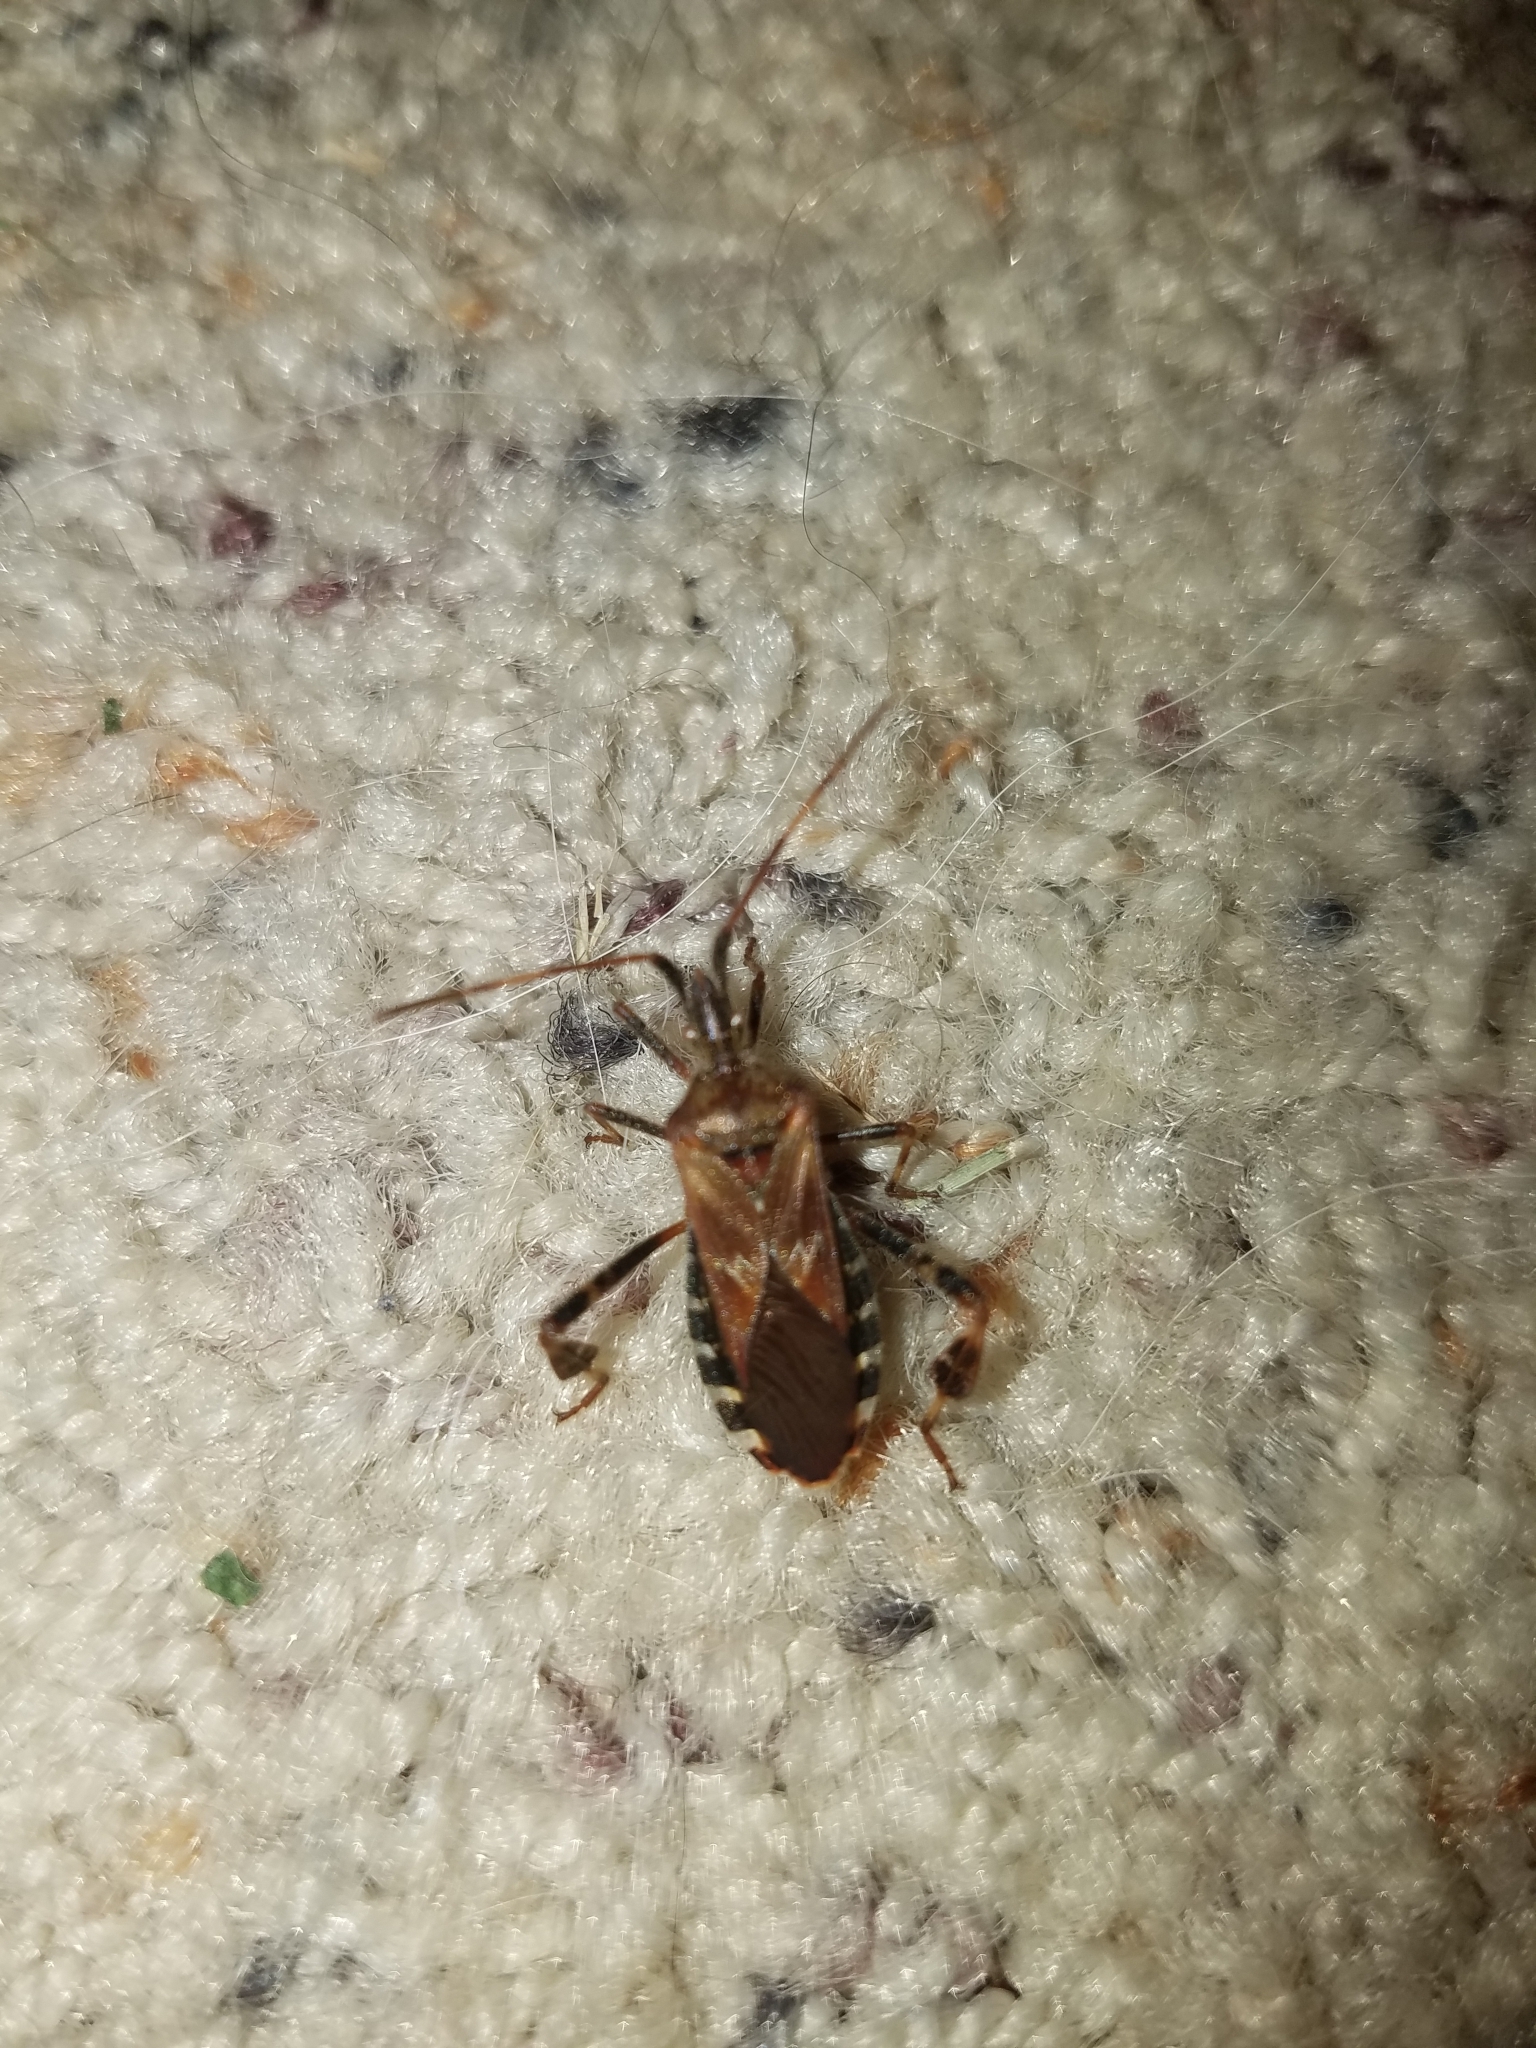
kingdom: Animalia
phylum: Arthropoda
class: Insecta
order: Hemiptera
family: Coreidae
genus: Leptoglossus
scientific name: Leptoglossus occidentalis
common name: Western conifer-seed bug
